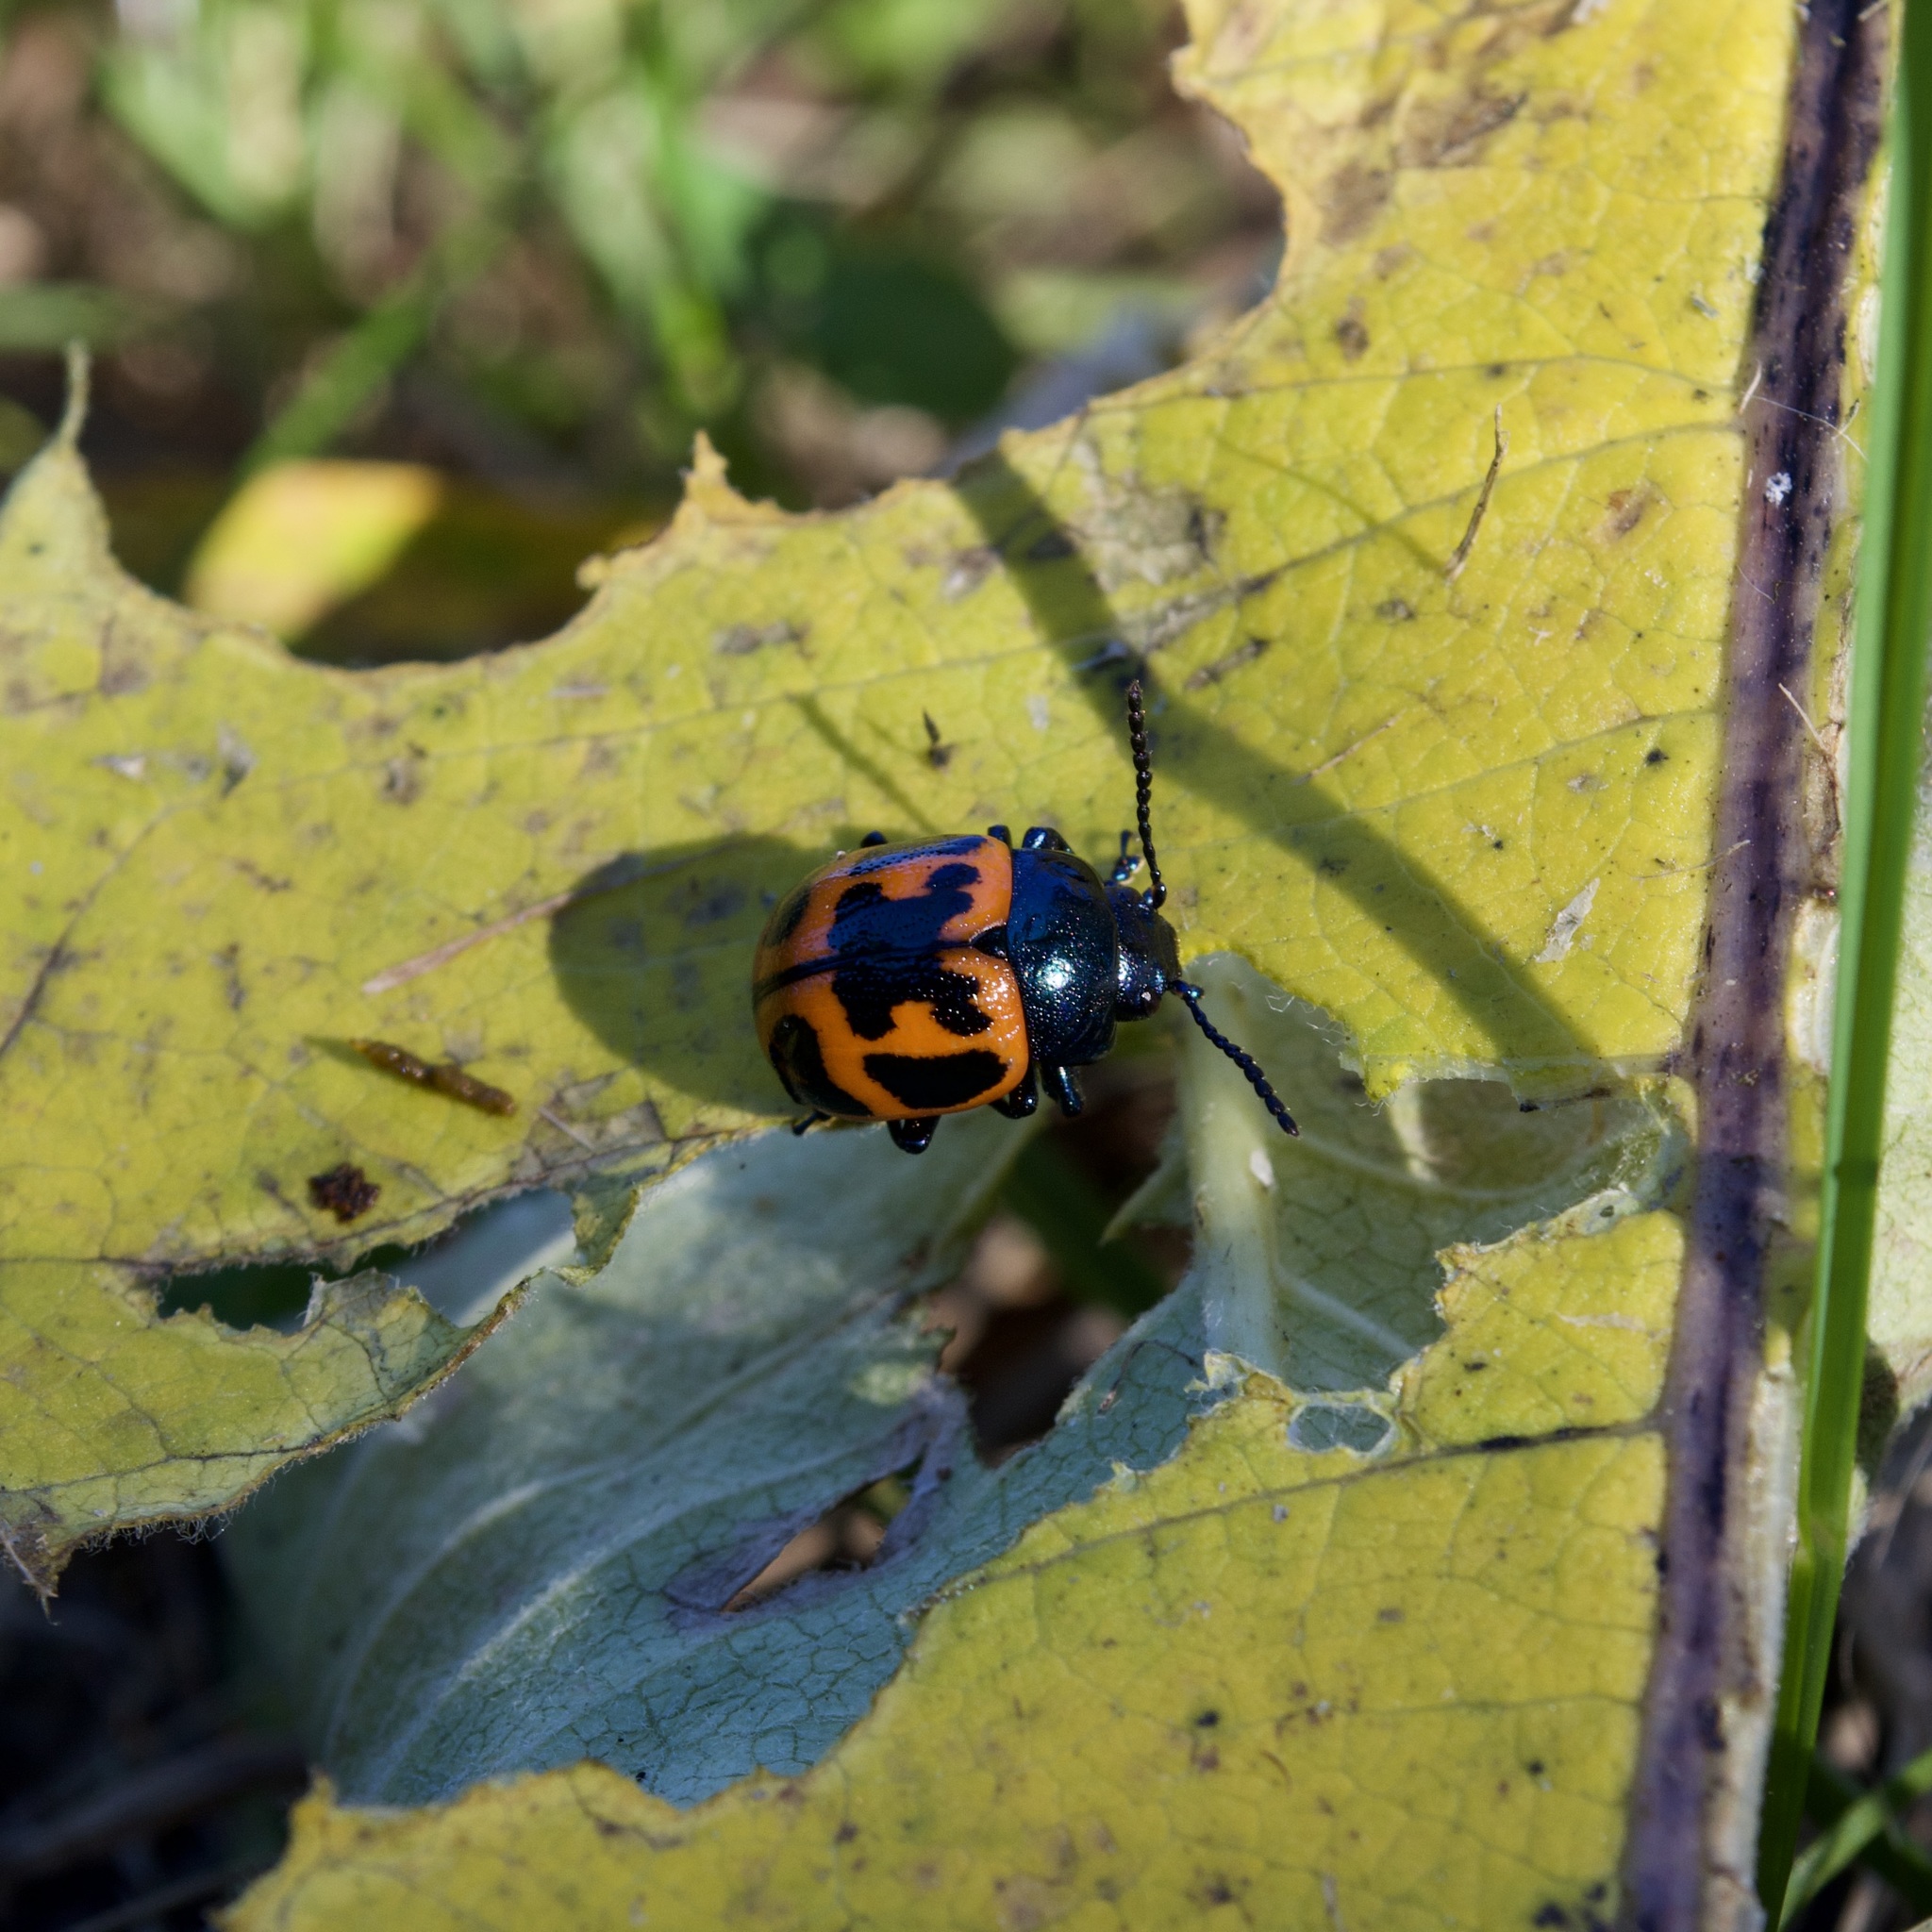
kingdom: Animalia
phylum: Arthropoda
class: Insecta
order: Coleoptera
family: Chrysomelidae
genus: Labidomera
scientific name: Labidomera clivicollis
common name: Swamp milkweed leaf beetle
